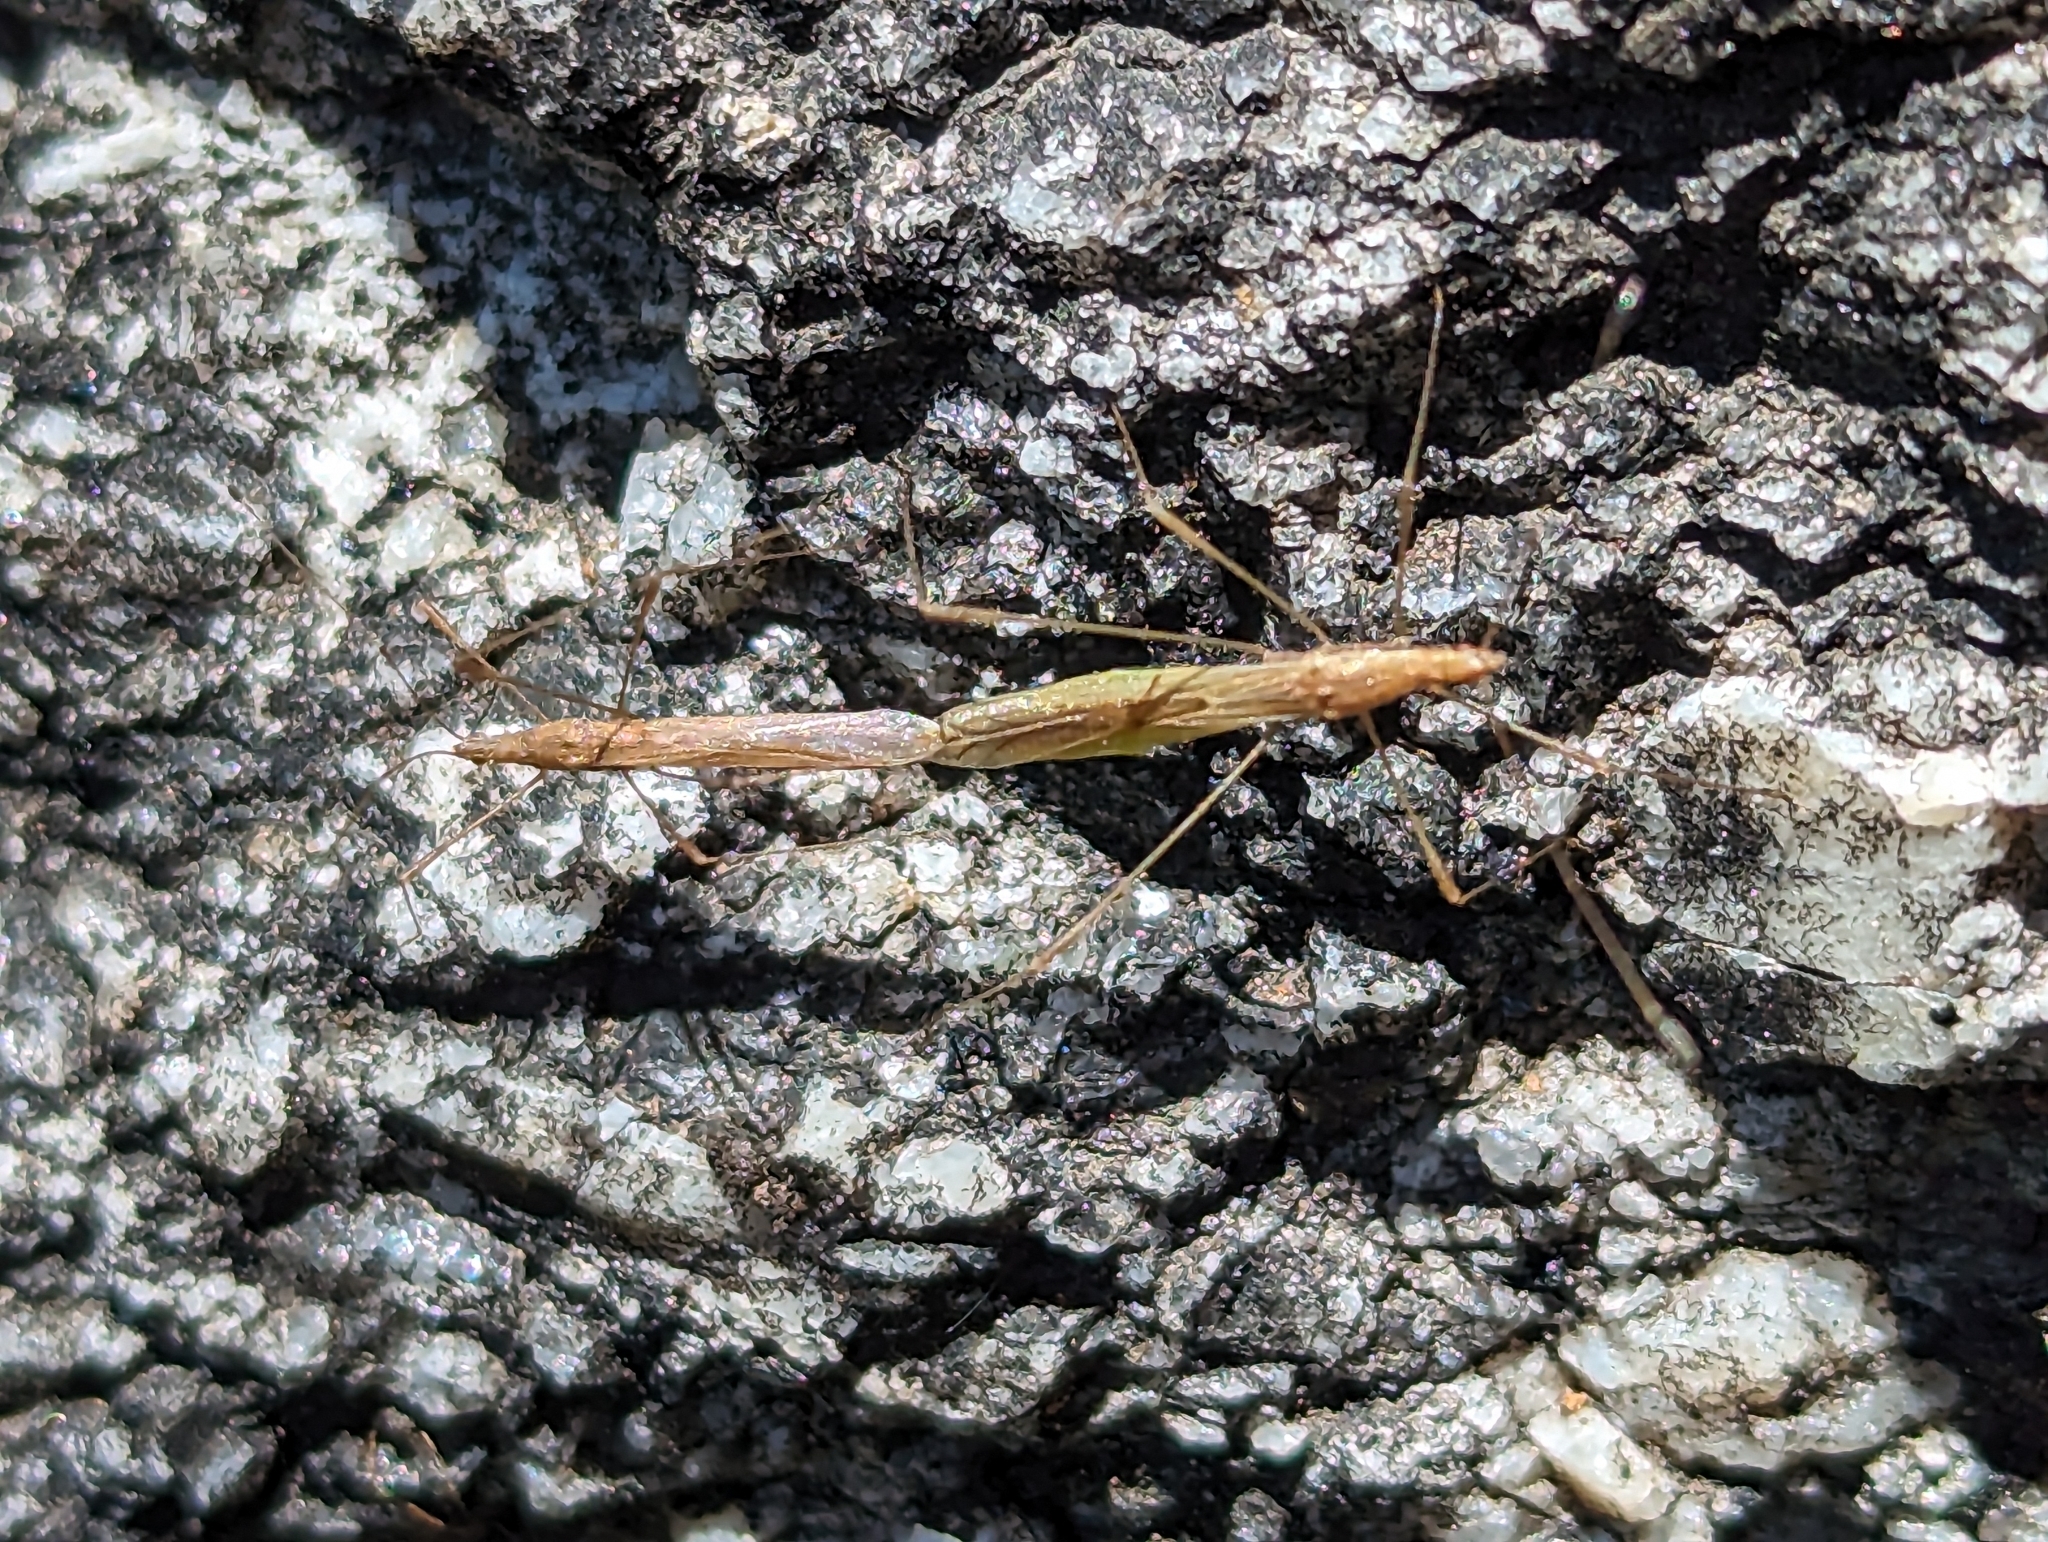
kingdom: Animalia
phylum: Arthropoda
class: Insecta
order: Hemiptera
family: Berytidae
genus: Neoneides
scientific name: Neoneides muticus
